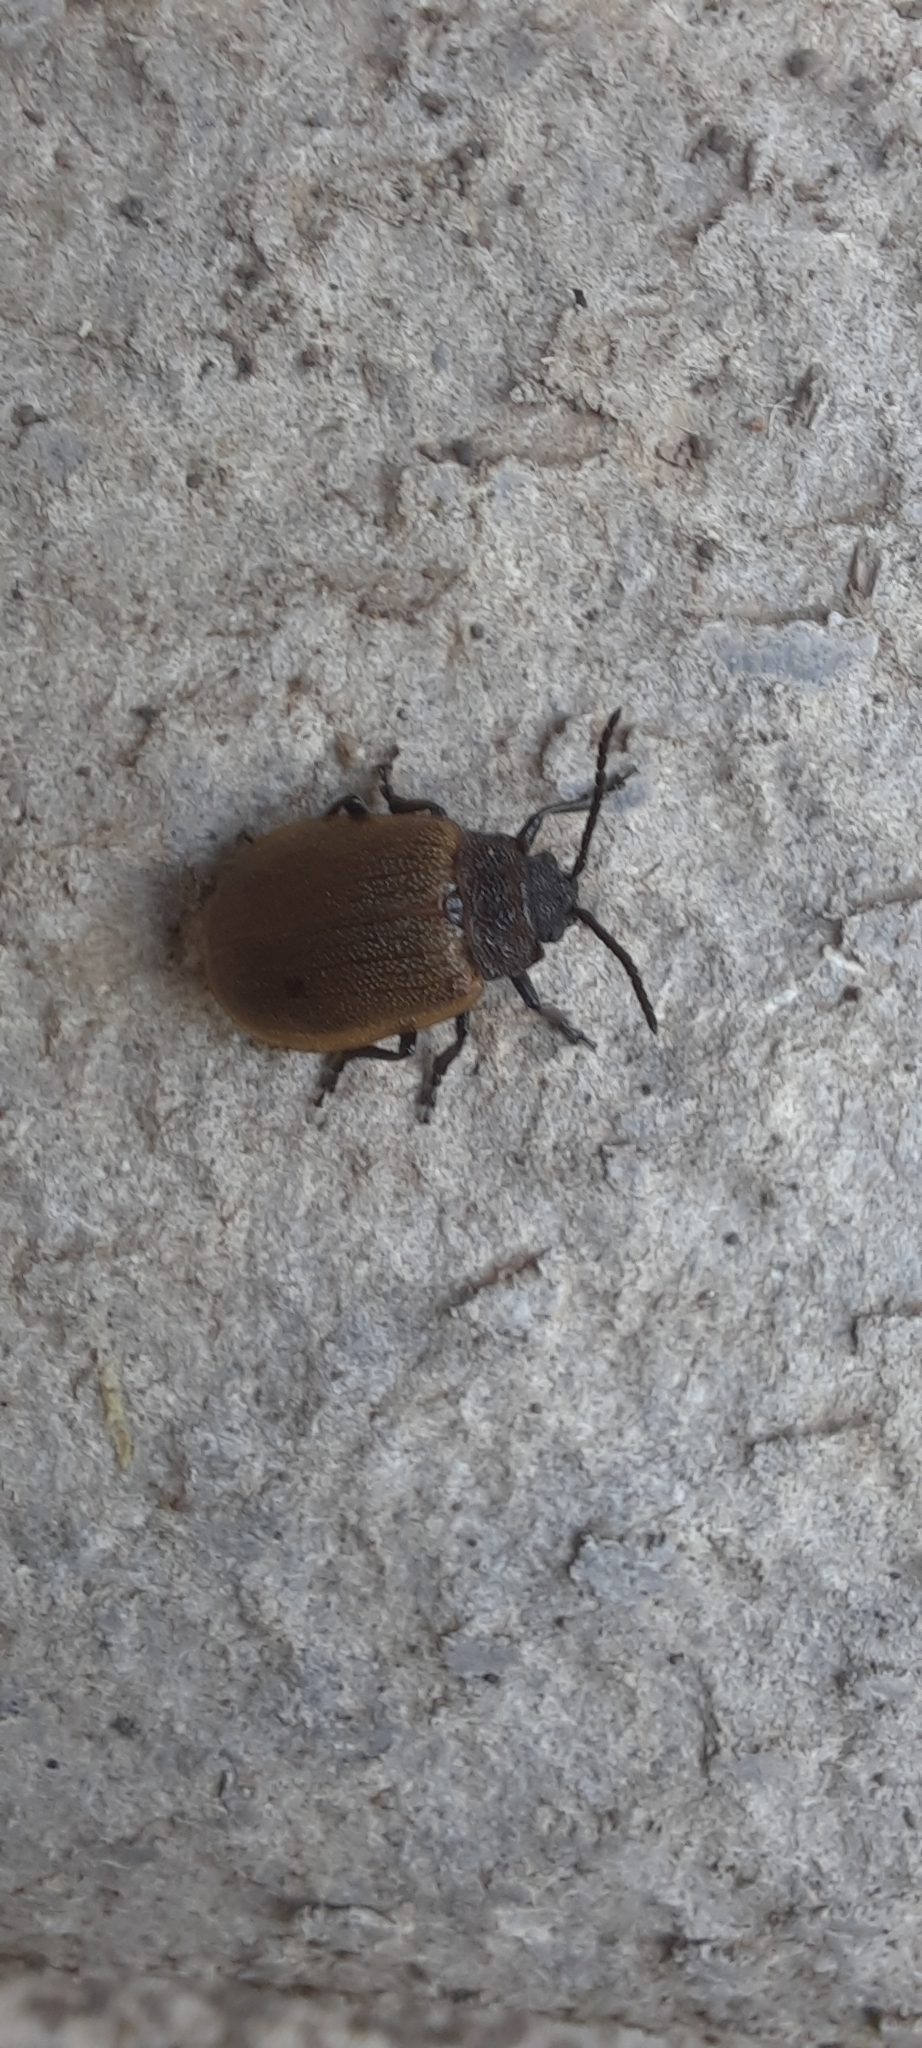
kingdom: Animalia
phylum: Arthropoda
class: Insecta
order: Coleoptera
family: Chrysomelidae
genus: Galeruca
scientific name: Galeruca pomonae
